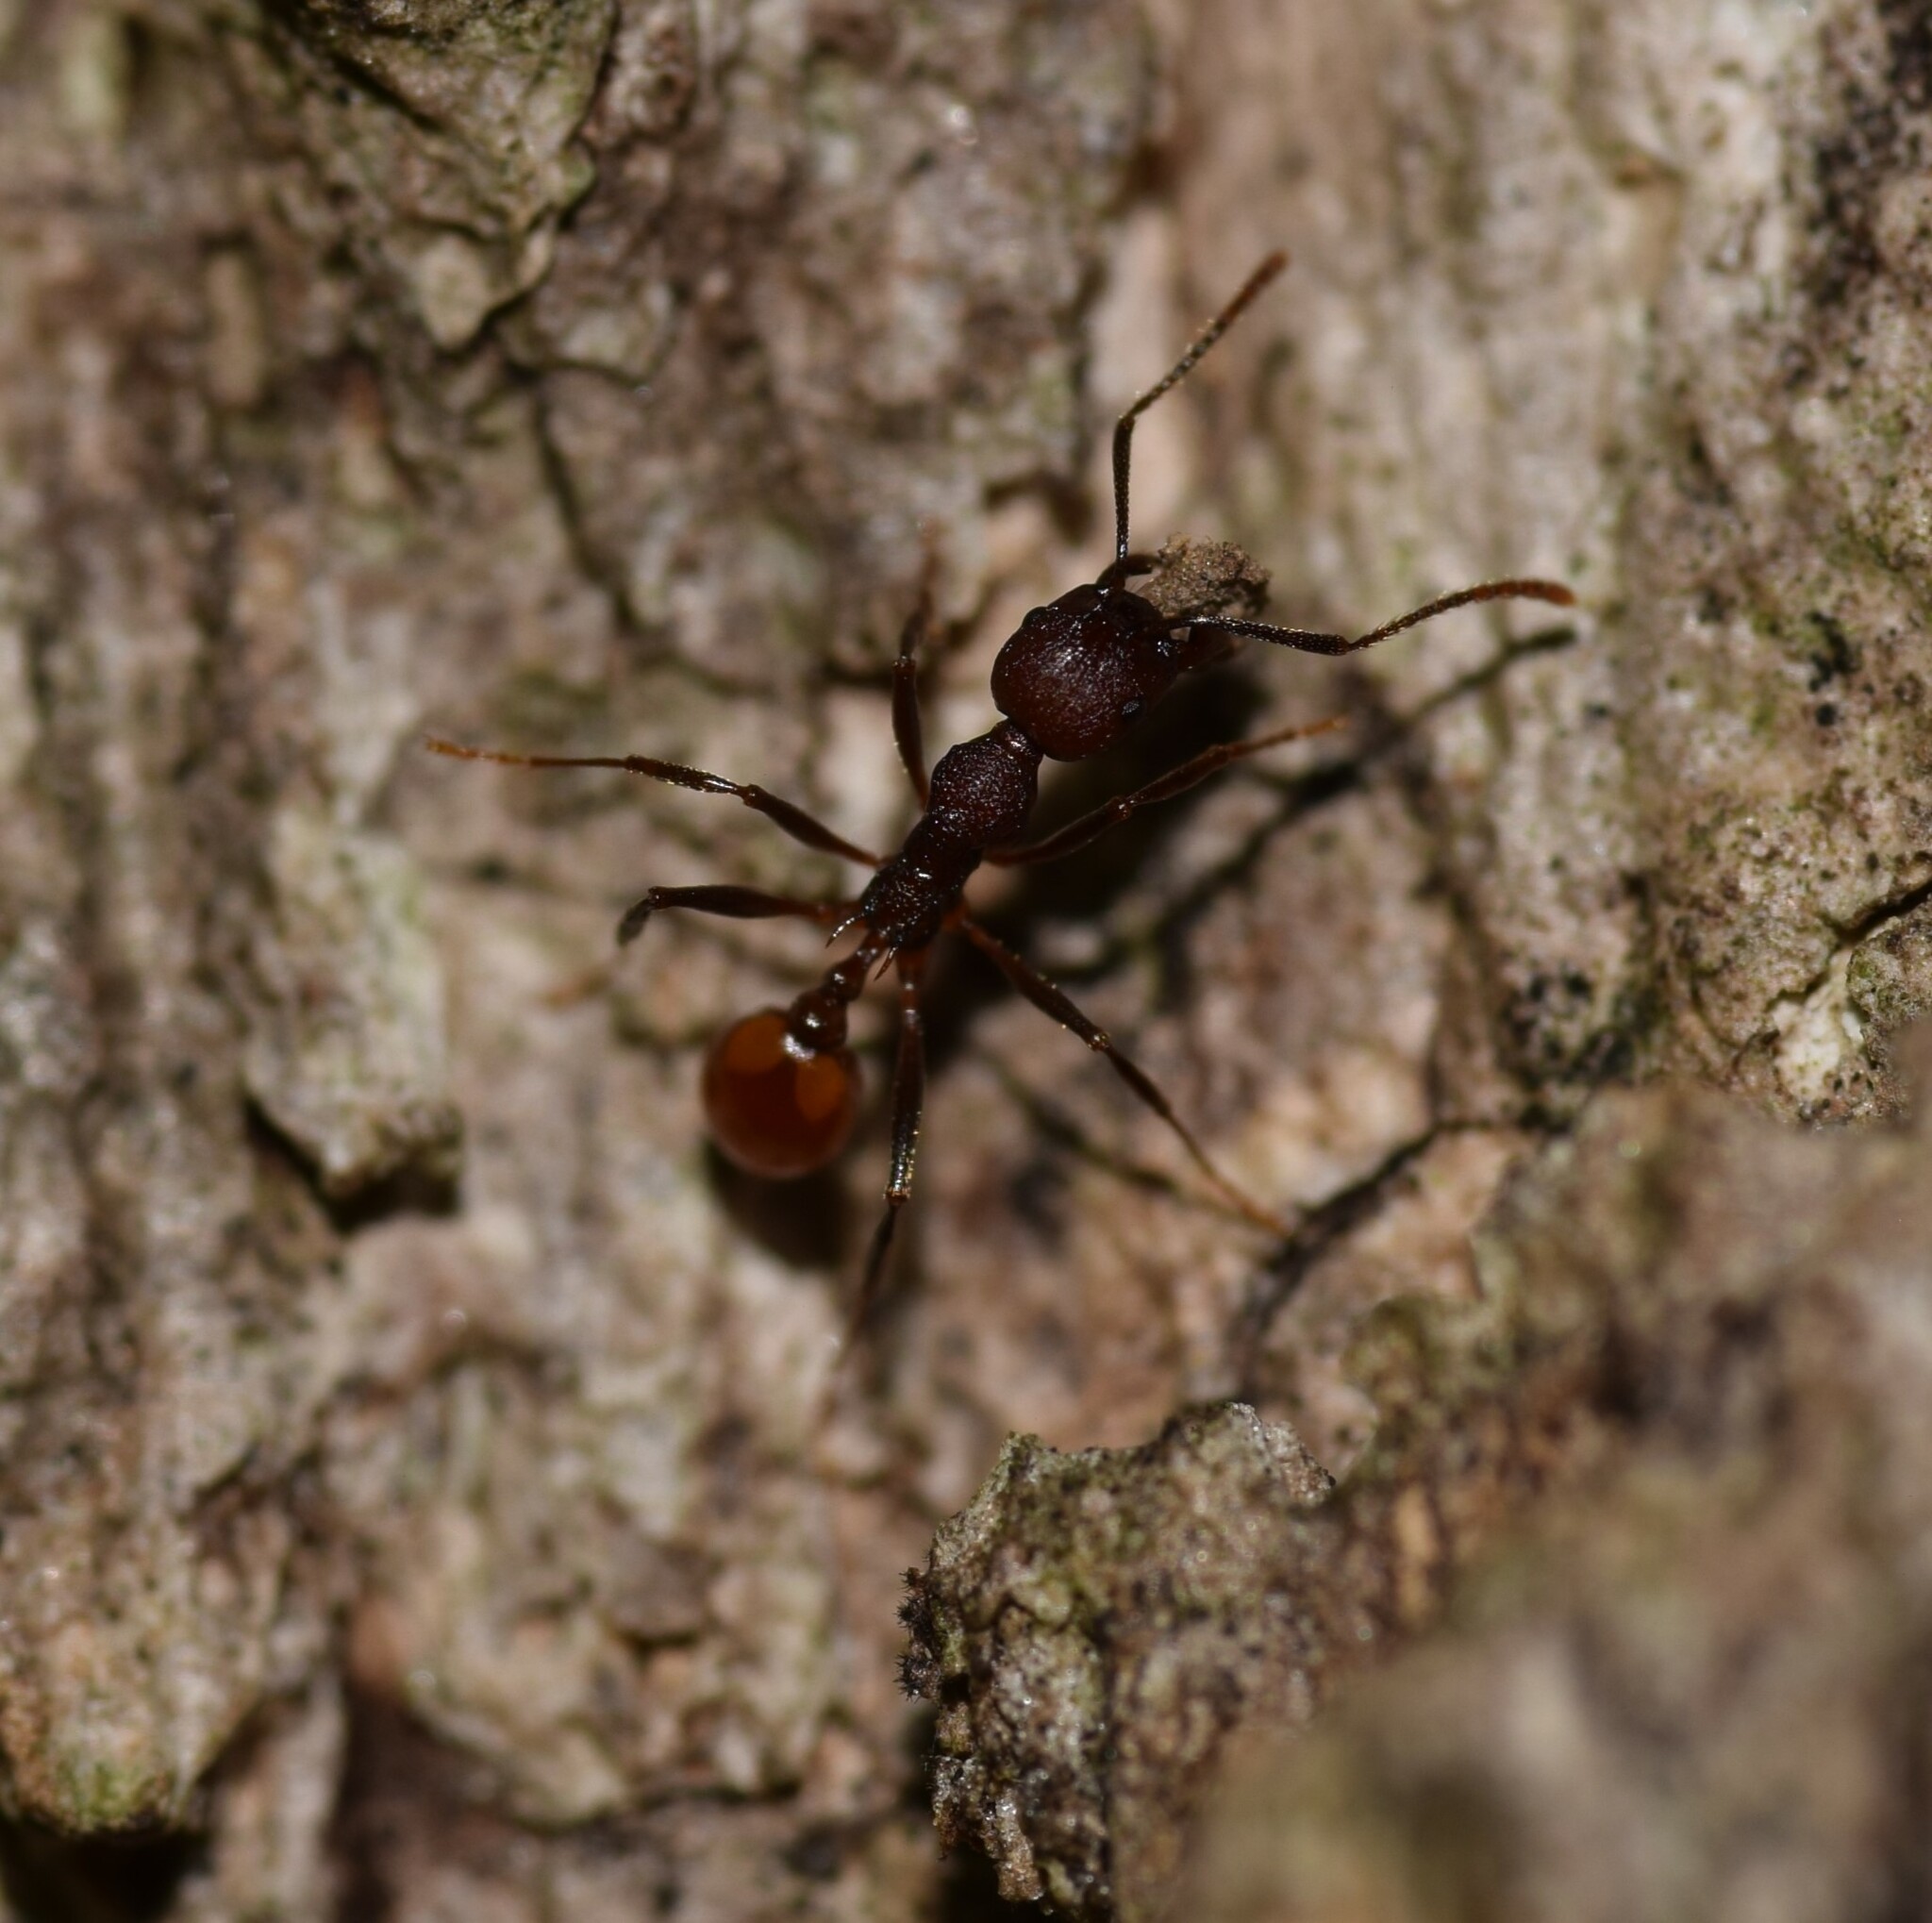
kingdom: Animalia
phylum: Arthropoda
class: Insecta
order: Hymenoptera
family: Formicidae
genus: Aphaenogaster
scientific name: Aphaenogaster tennesseensis
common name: Tennessee thread-waisted ant
